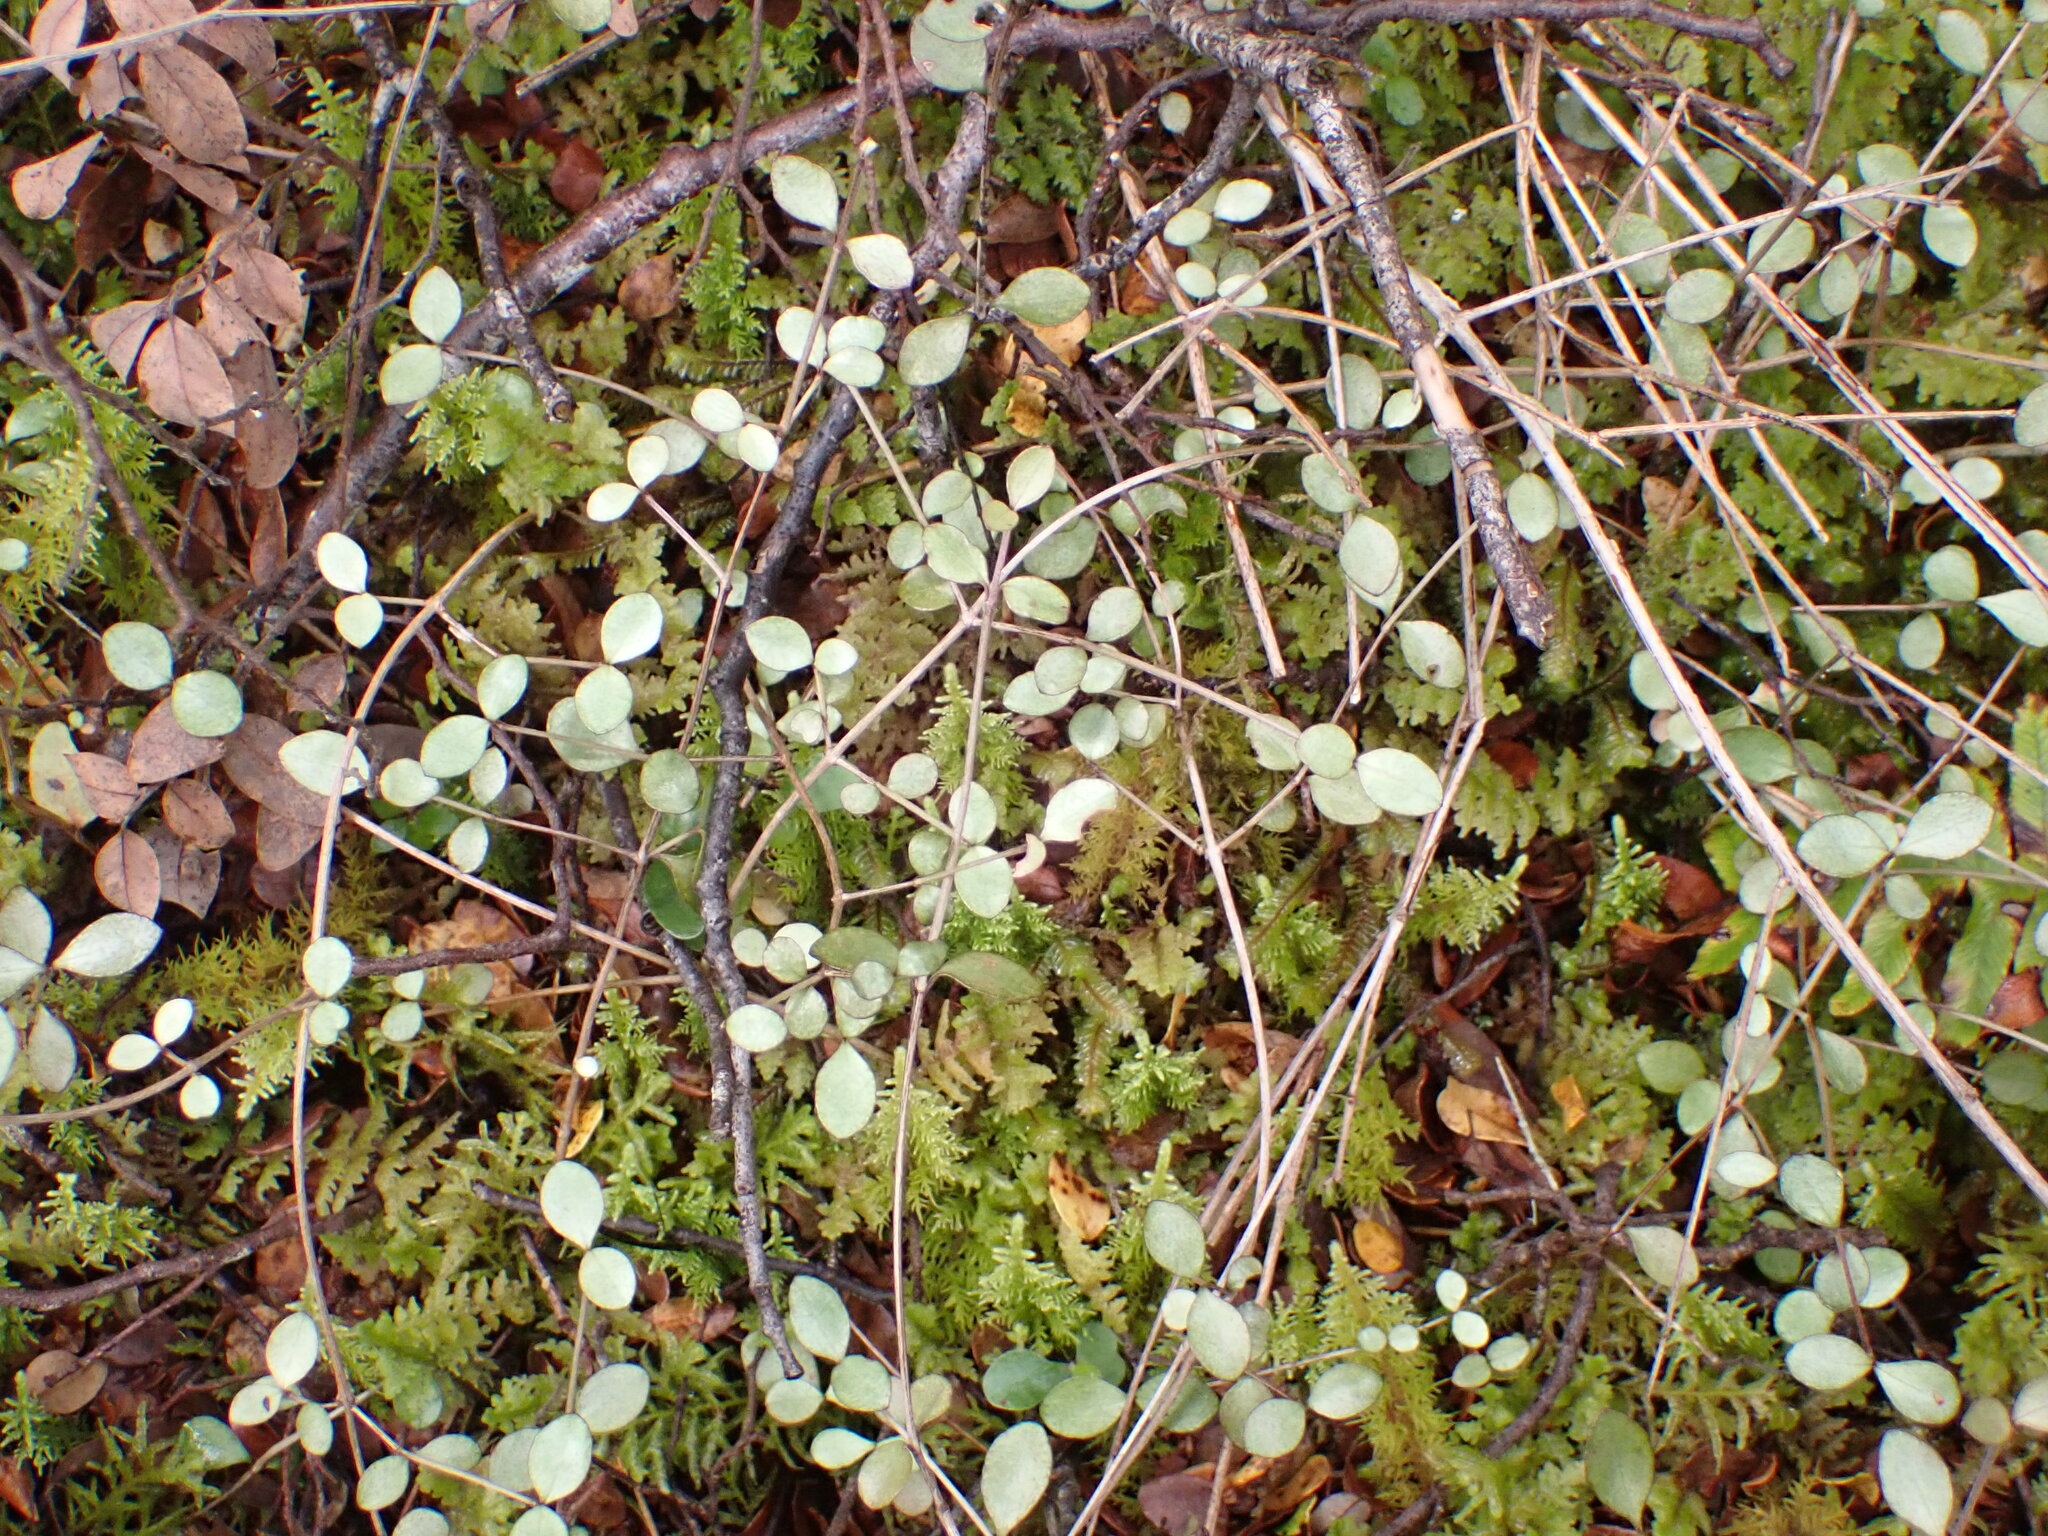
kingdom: Plantae
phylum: Tracheophyta
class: Magnoliopsida
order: Myrtales
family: Myrtaceae
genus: Neomyrtus
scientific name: Neomyrtus pedunculata
